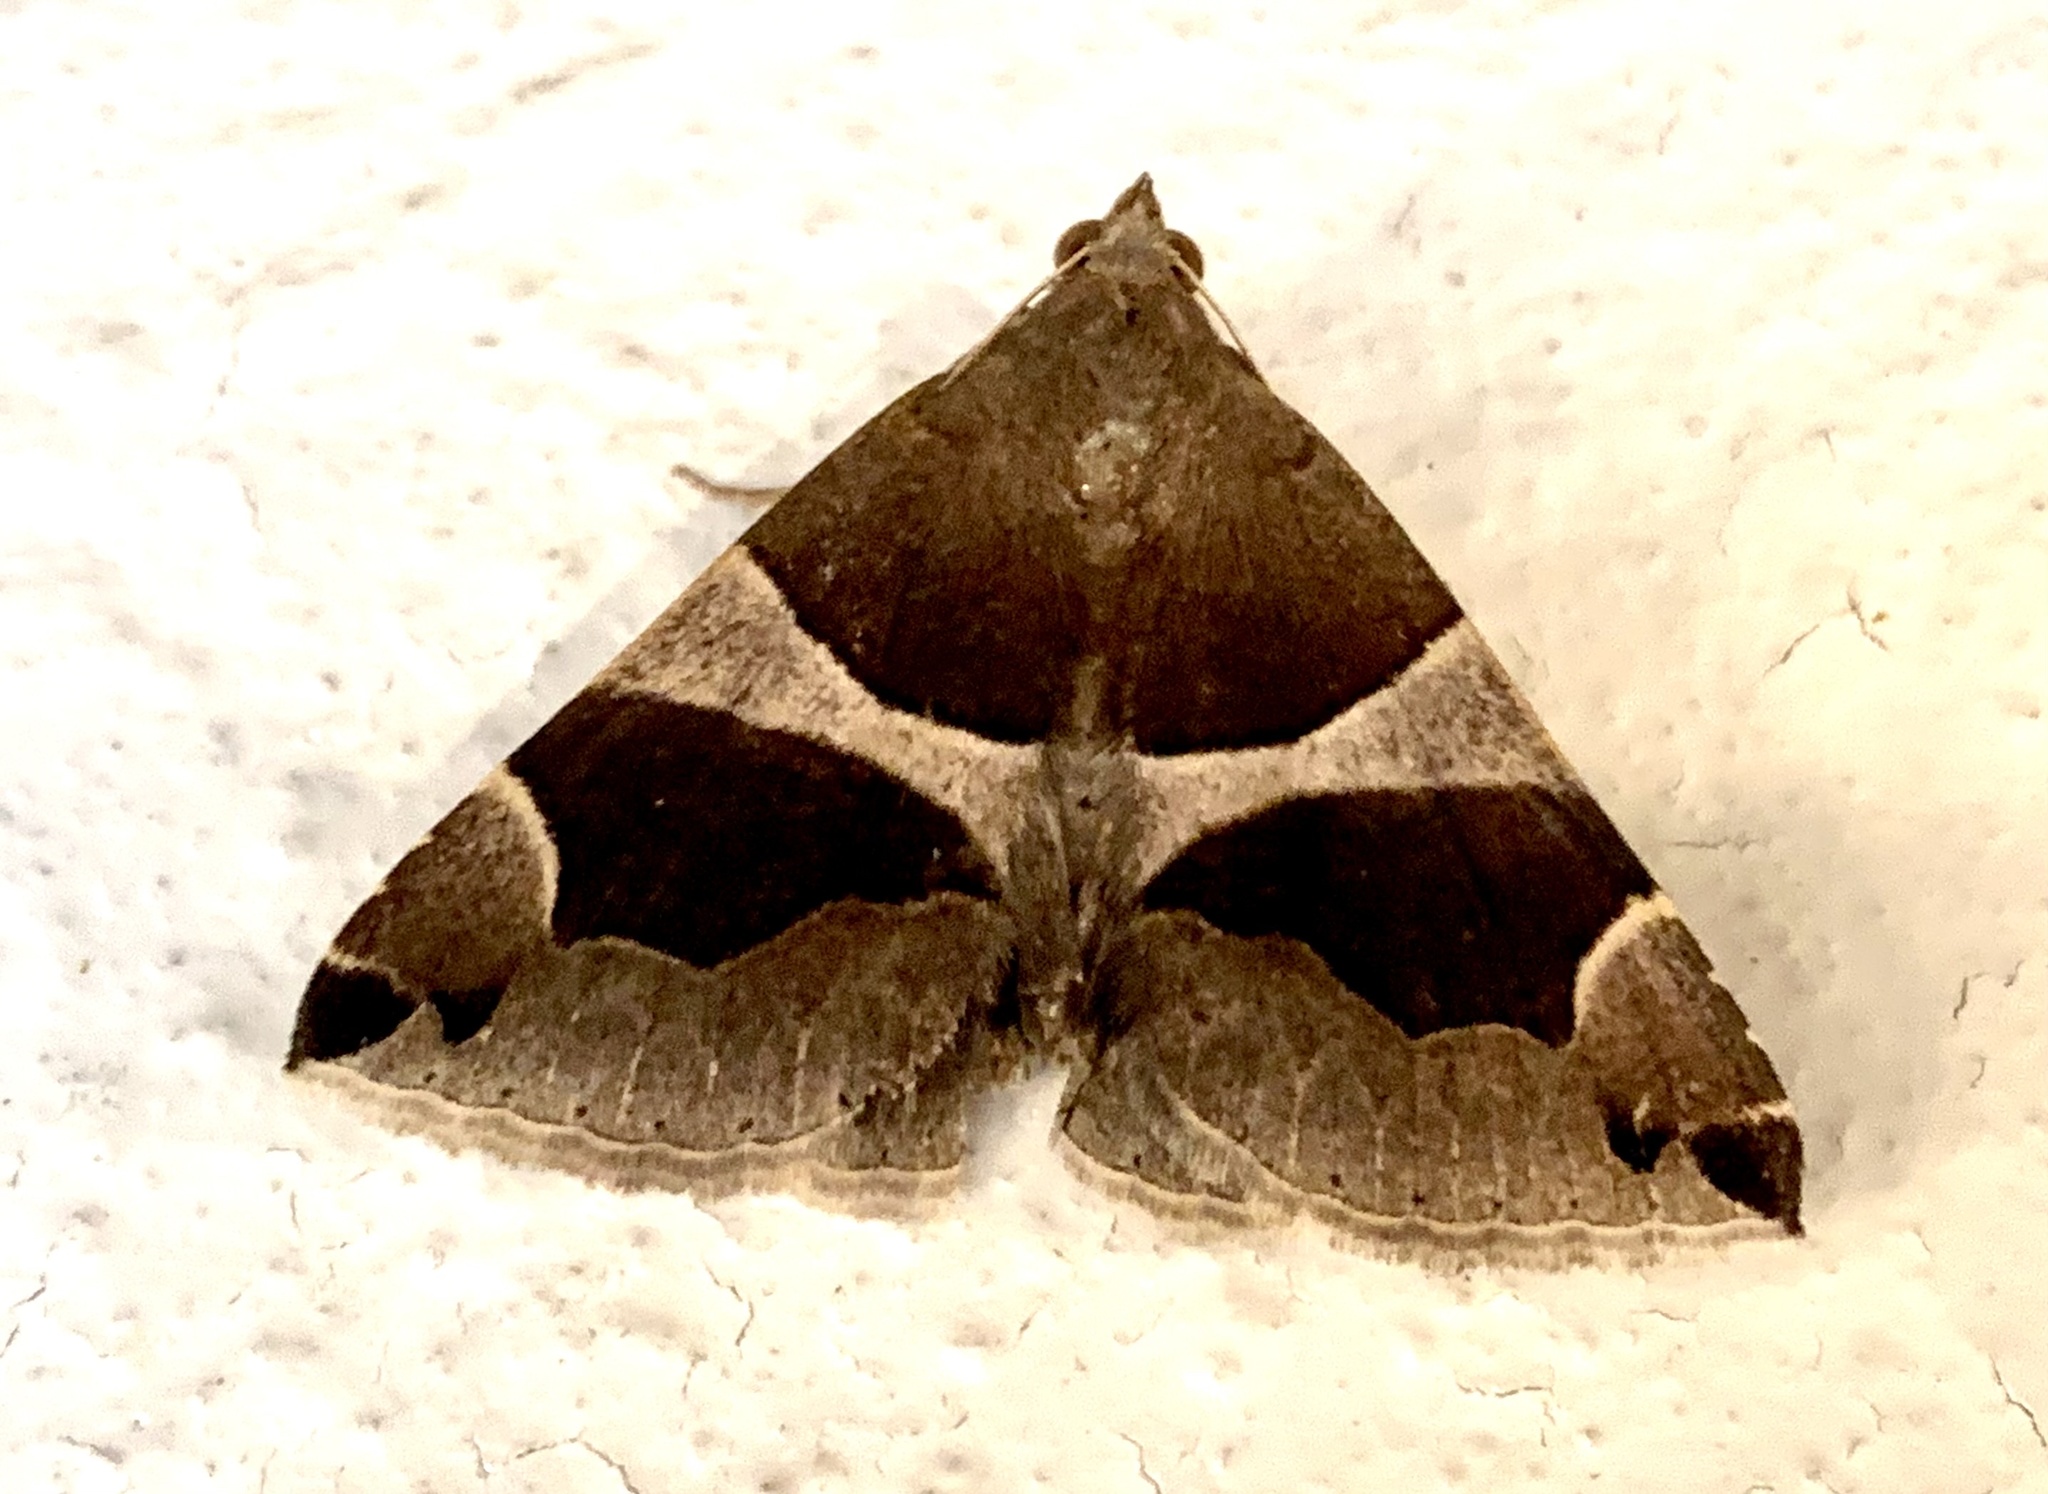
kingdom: Animalia
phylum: Arthropoda
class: Insecta
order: Lepidoptera
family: Erebidae
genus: Dysgonia
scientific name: Dysgonia algira
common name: Passenger
